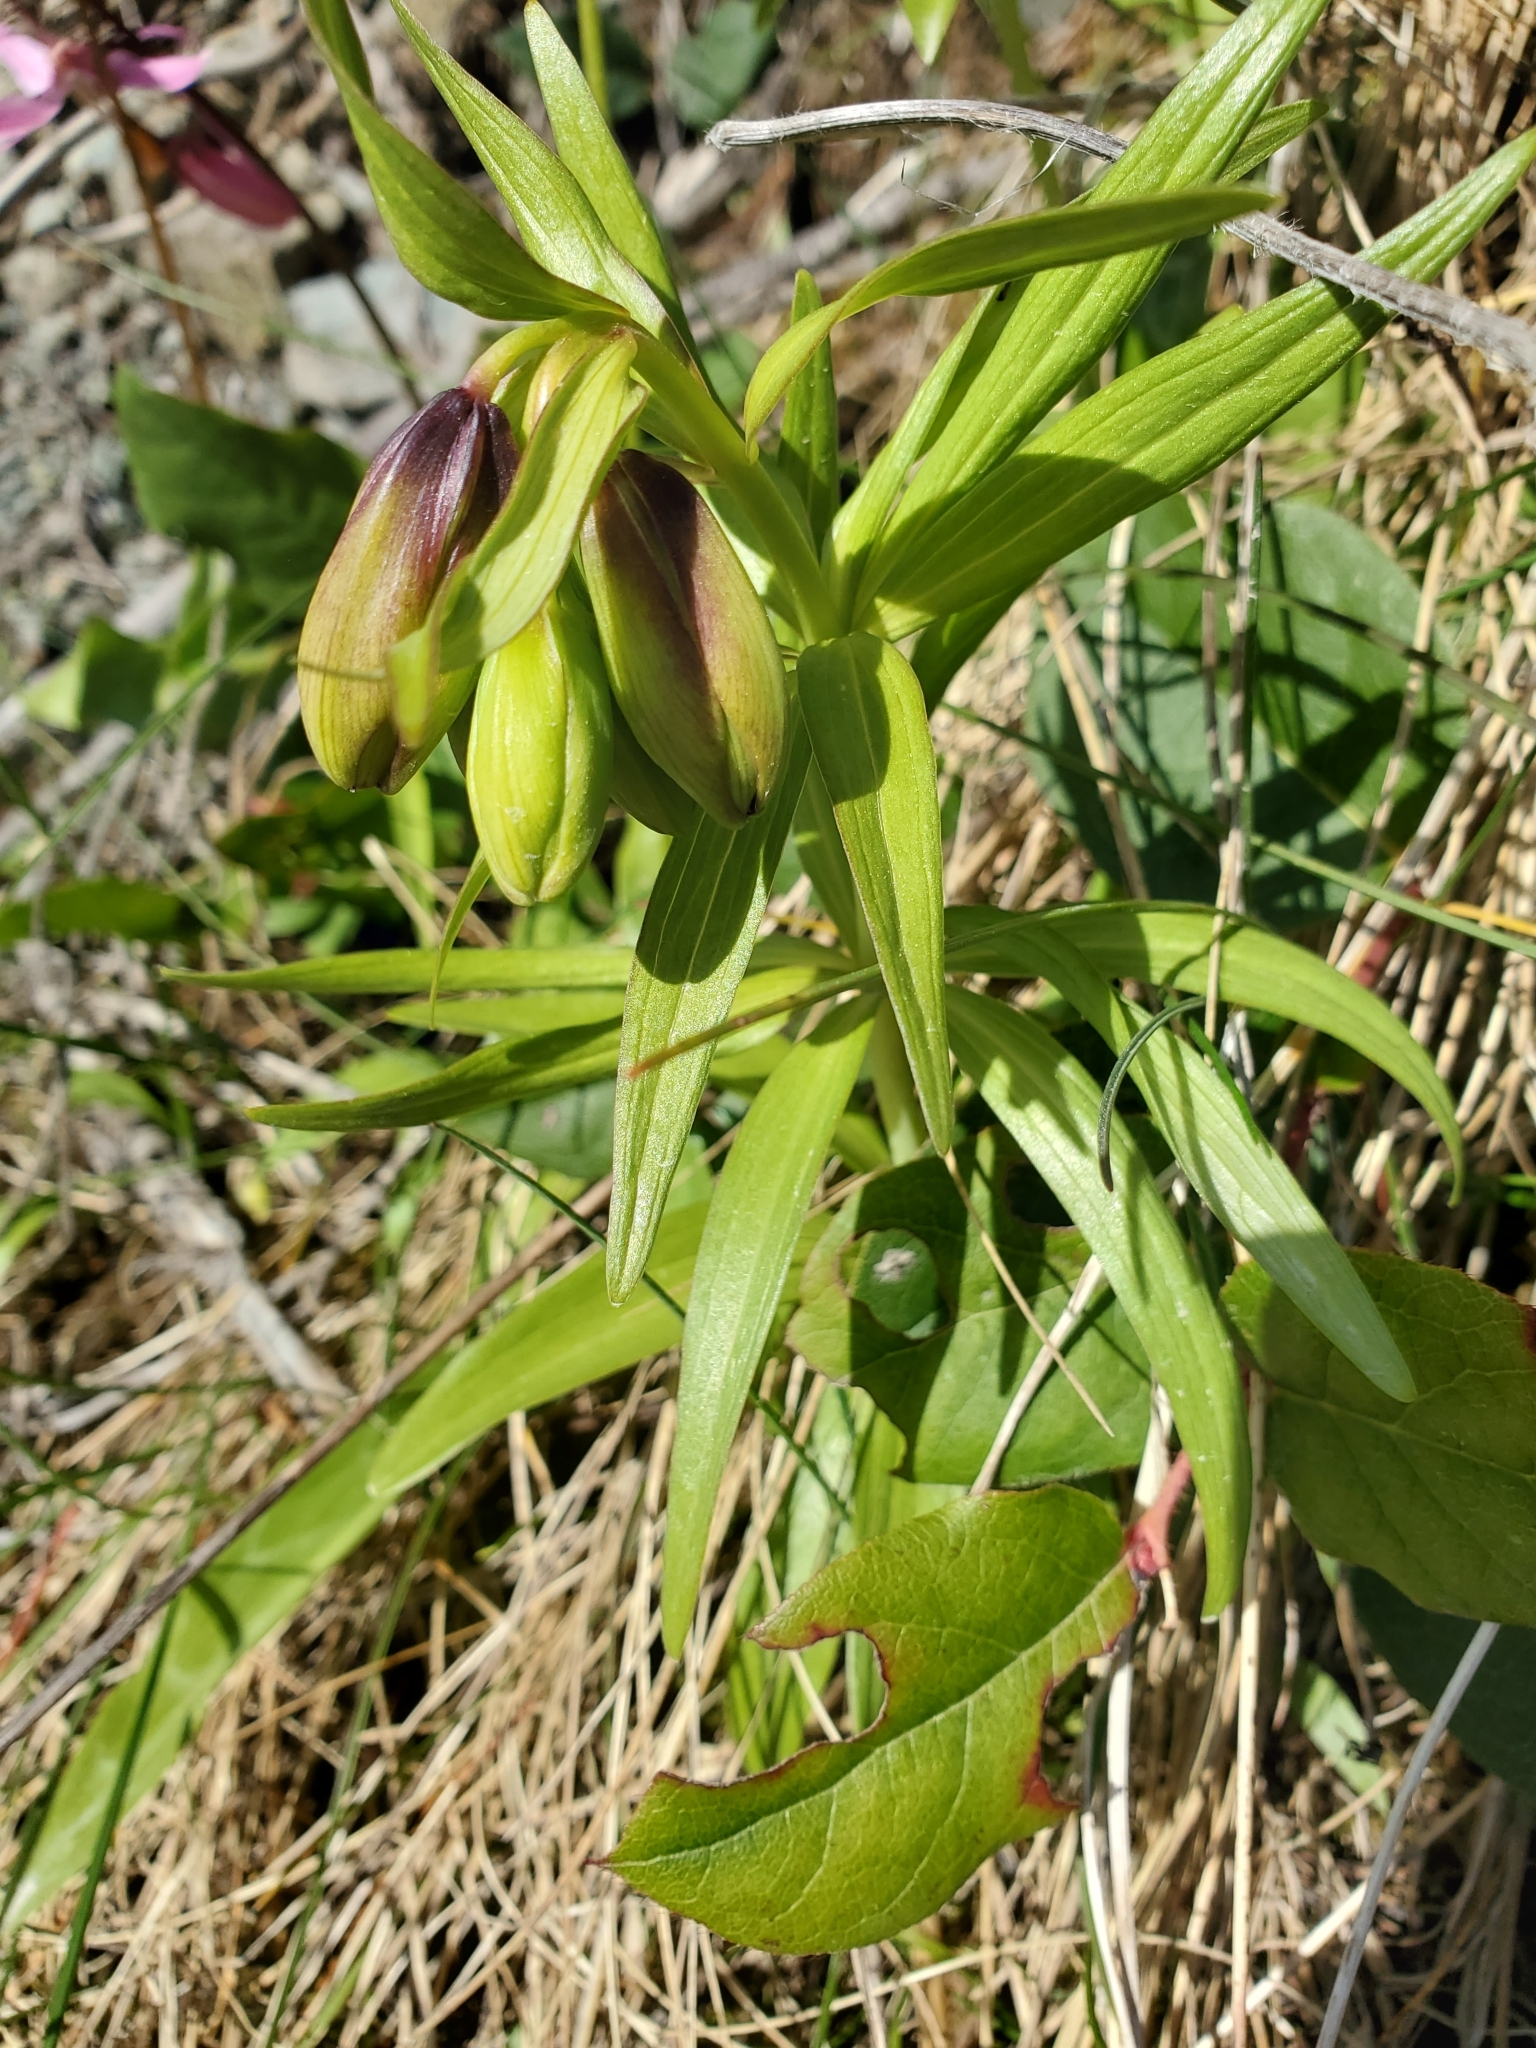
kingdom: Plantae
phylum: Tracheophyta
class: Liliopsida
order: Liliales
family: Liliaceae
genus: Fritillaria
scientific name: Fritillaria camschatcensis
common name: Kamchatka fritillary
